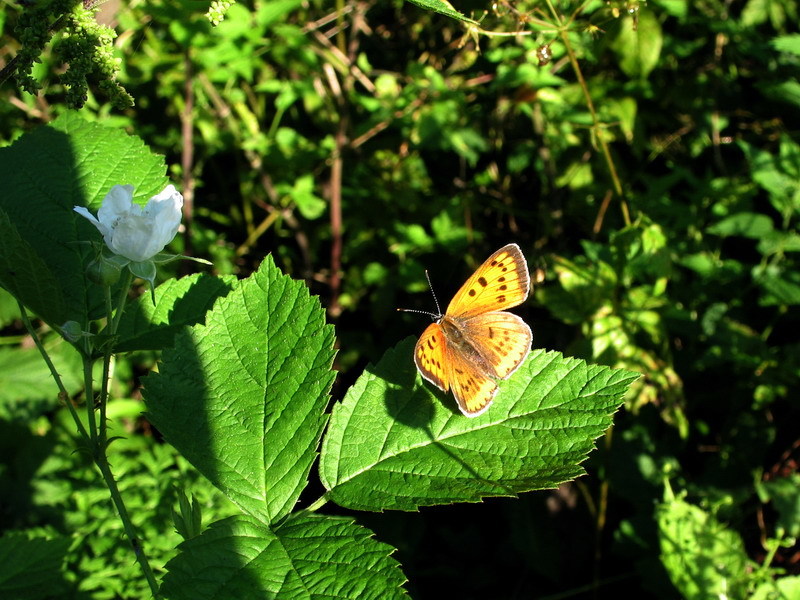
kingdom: Animalia
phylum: Arthropoda
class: Insecta
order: Lepidoptera
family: Lycaenidae
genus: Lycaena
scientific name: Lycaena dispar
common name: Large copper
